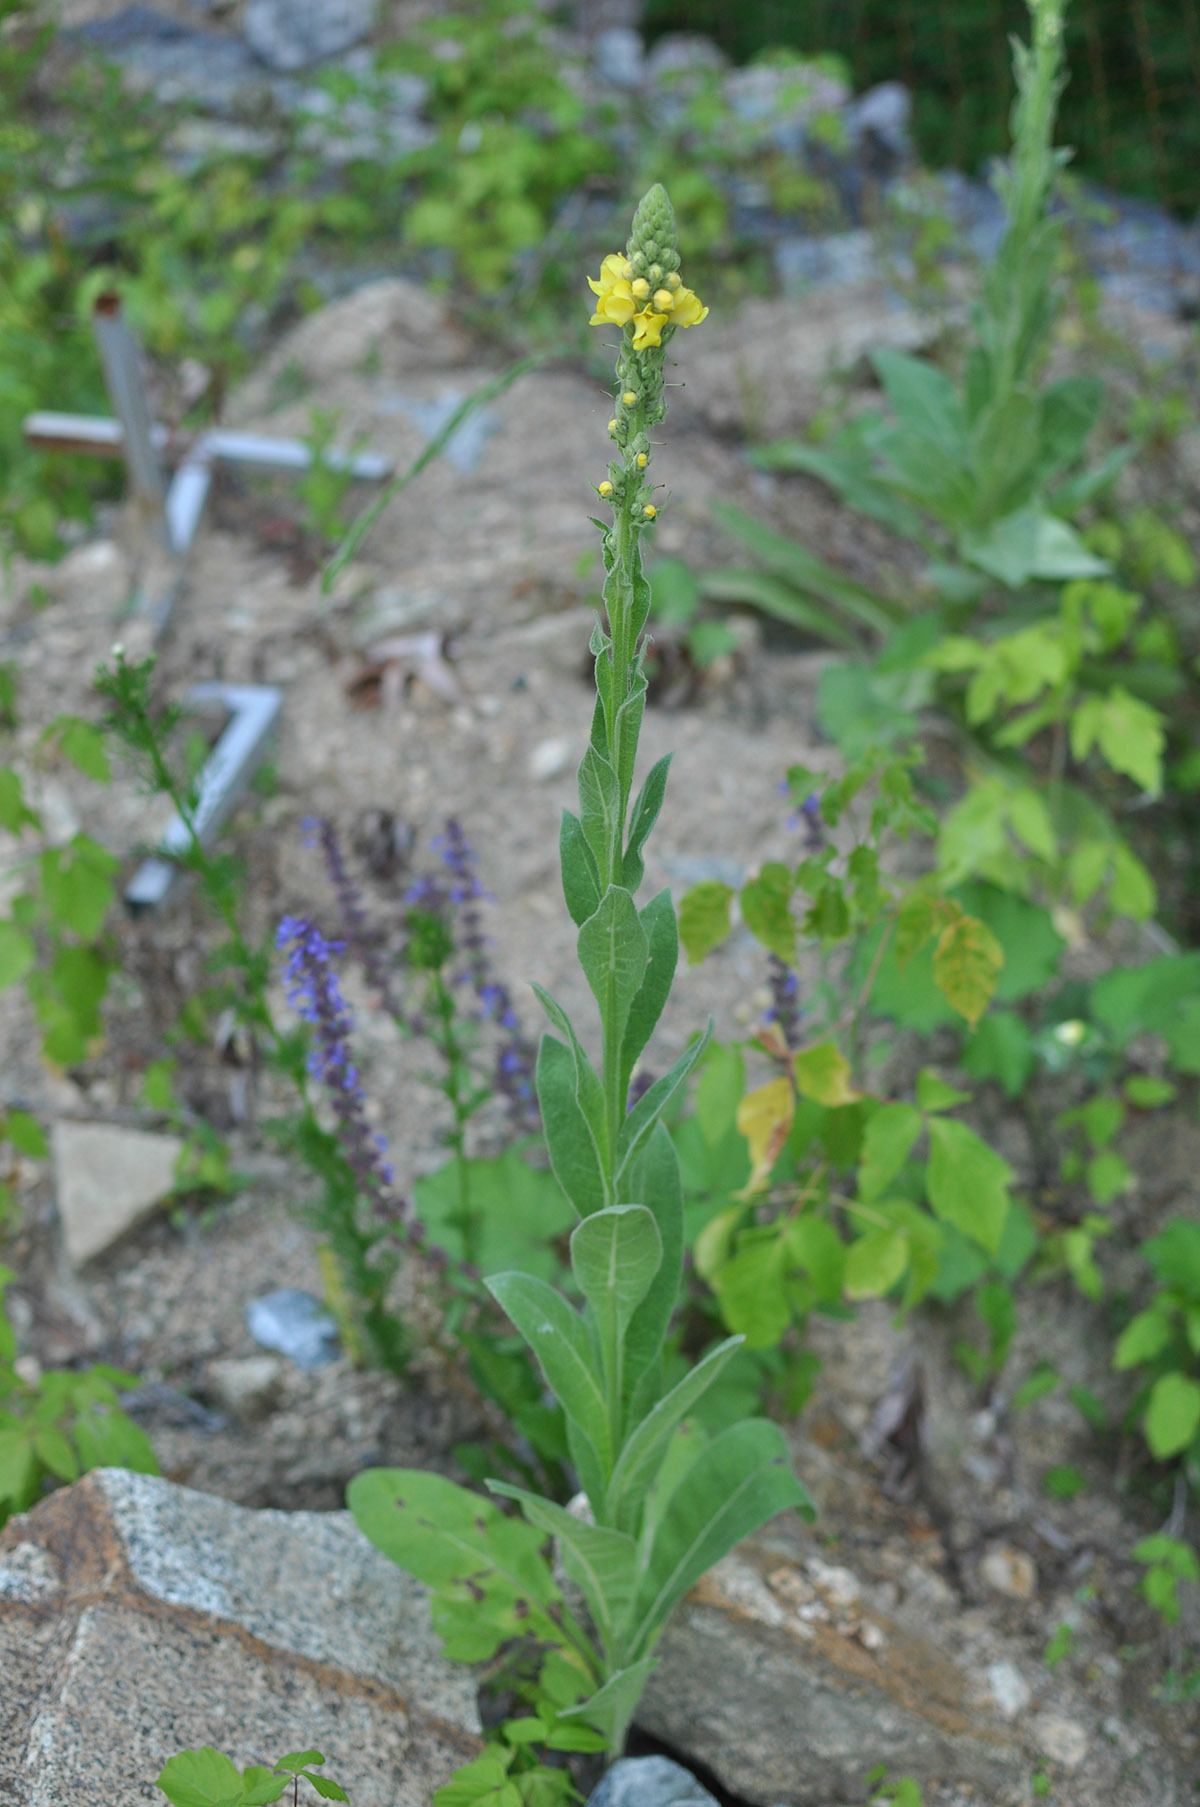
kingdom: Plantae
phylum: Tracheophyta
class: Magnoliopsida
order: Lamiales
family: Scrophulariaceae
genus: Verbascum
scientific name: Verbascum thapsus
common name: Common mullein
